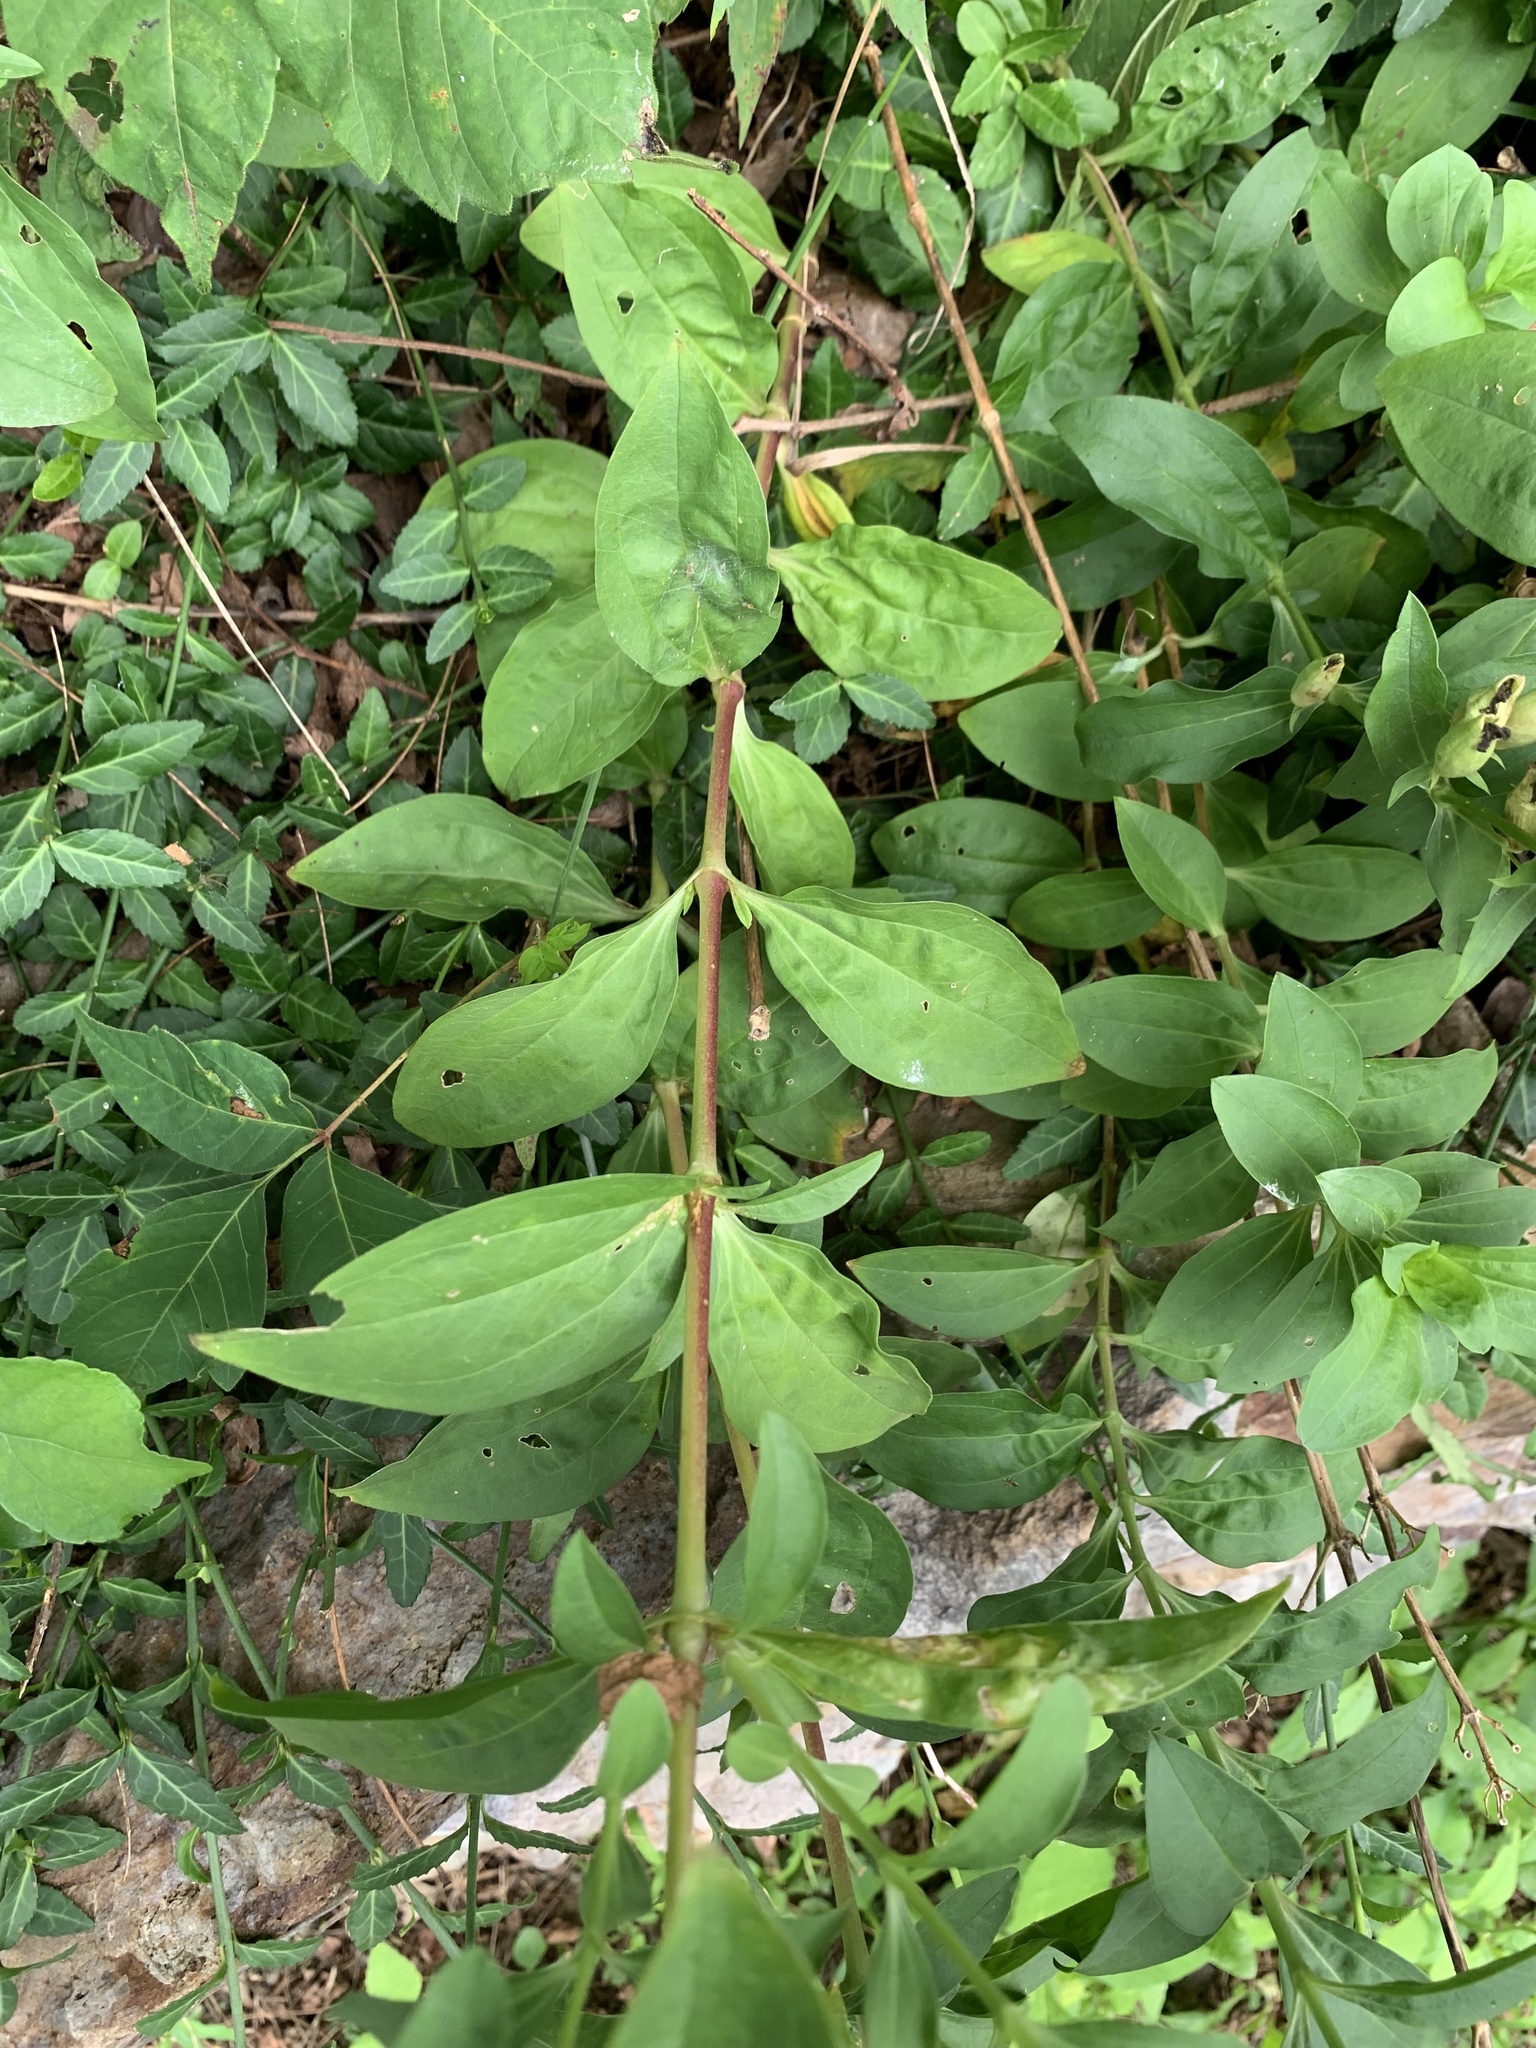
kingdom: Plantae
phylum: Tracheophyta
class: Magnoliopsida
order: Caryophyllales
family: Caryophyllaceae
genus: Saponaria
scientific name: Saponaria officinalis
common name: Soapwort
